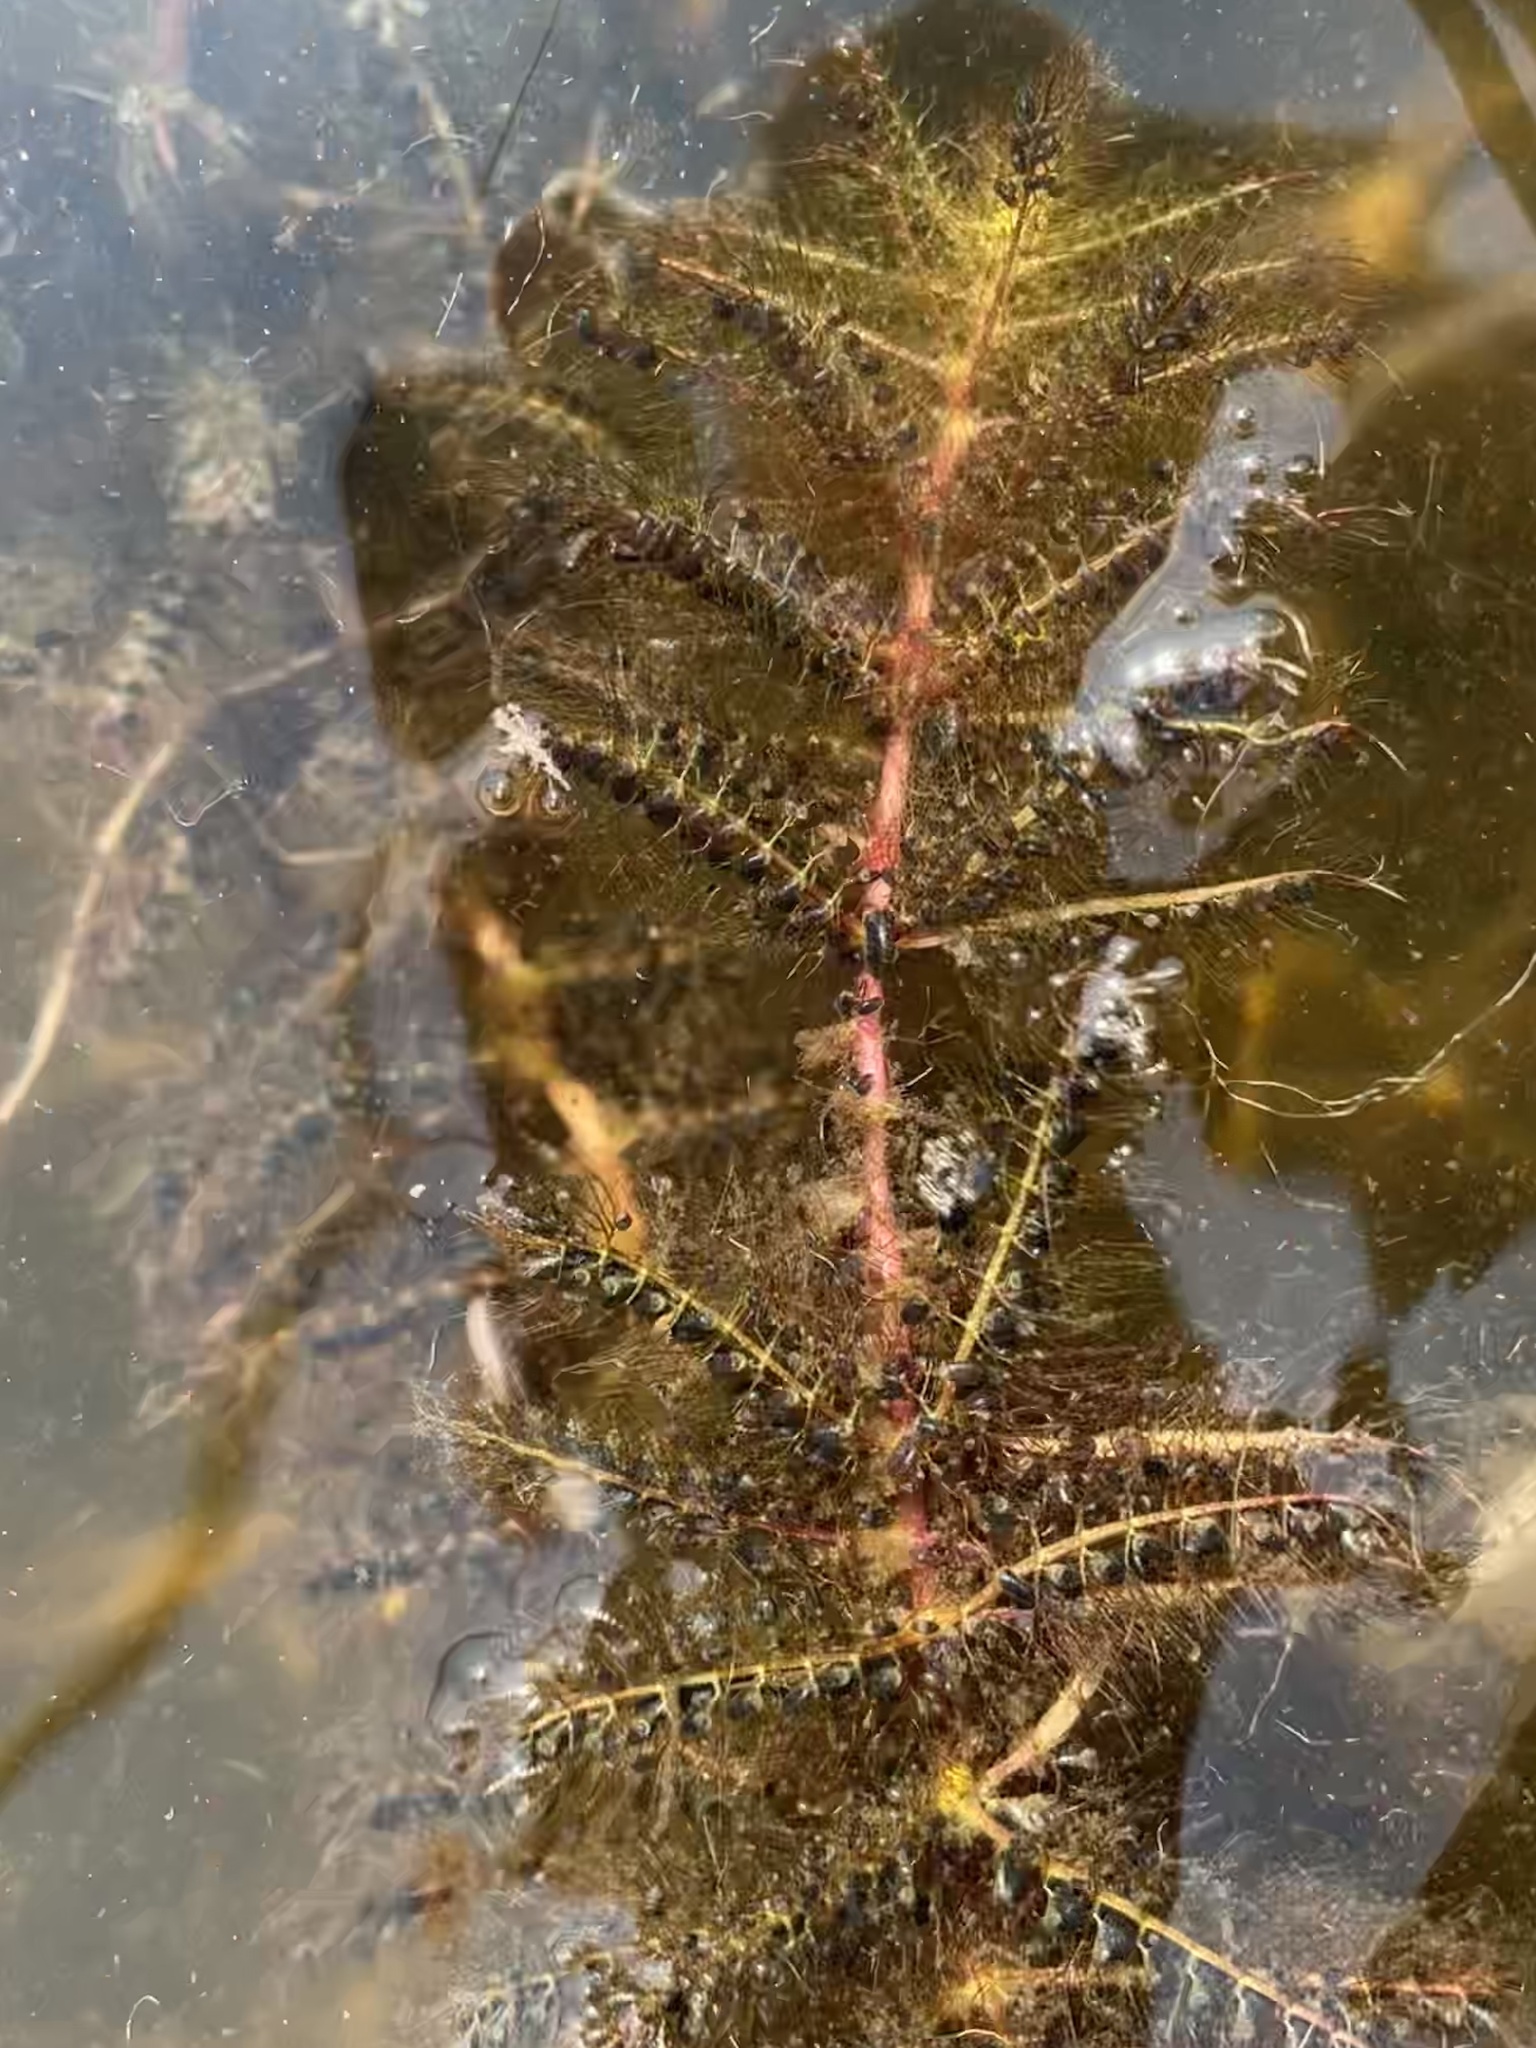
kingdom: Plantae
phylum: Tracheophyta
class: Magnoliopsida
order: Lamiales
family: Lentibulariaceae
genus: Utricularia
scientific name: Utricularia stellaris
